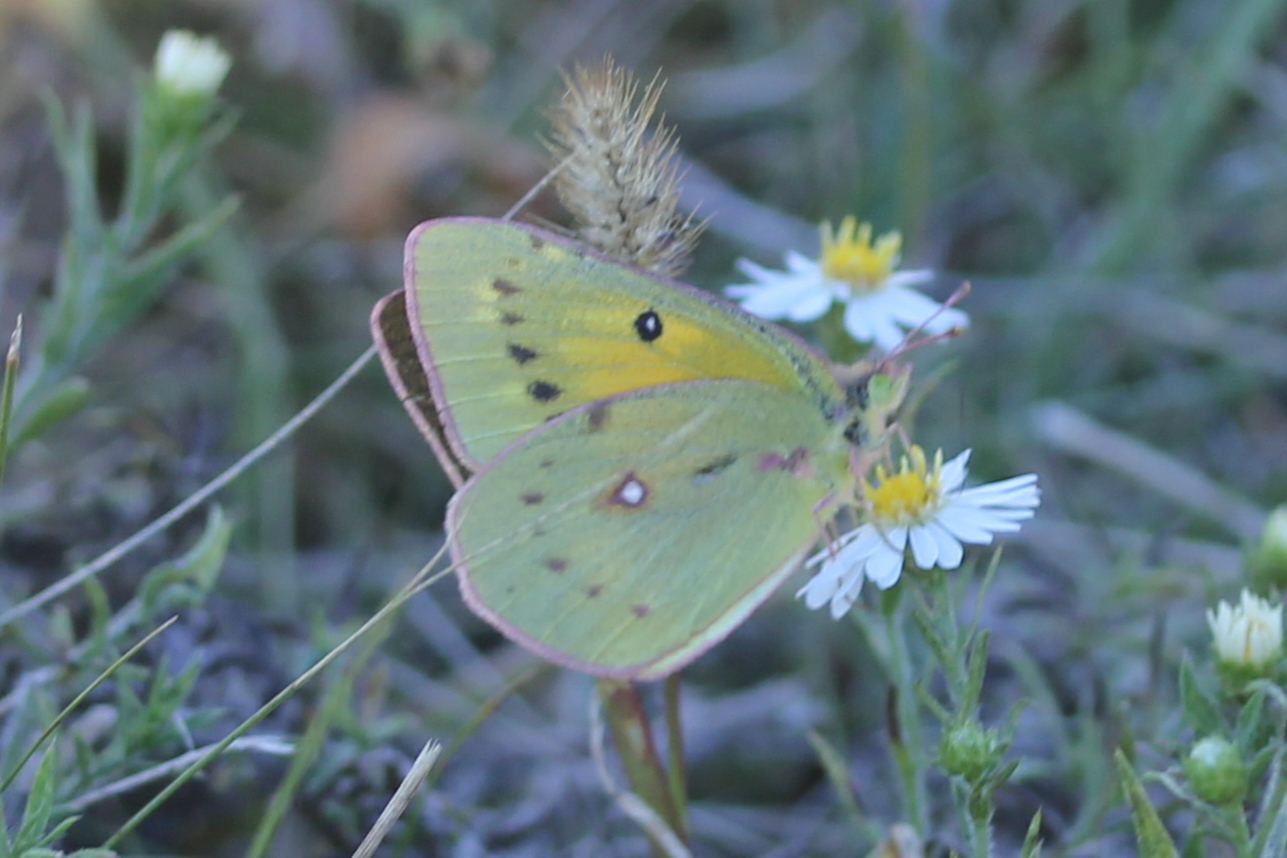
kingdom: Animalia
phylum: Arthropoda
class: Insecta
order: Lepidoptera
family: Pieridae
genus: Colias
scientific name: Colias eurytheme
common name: Alfalfa butterfly
